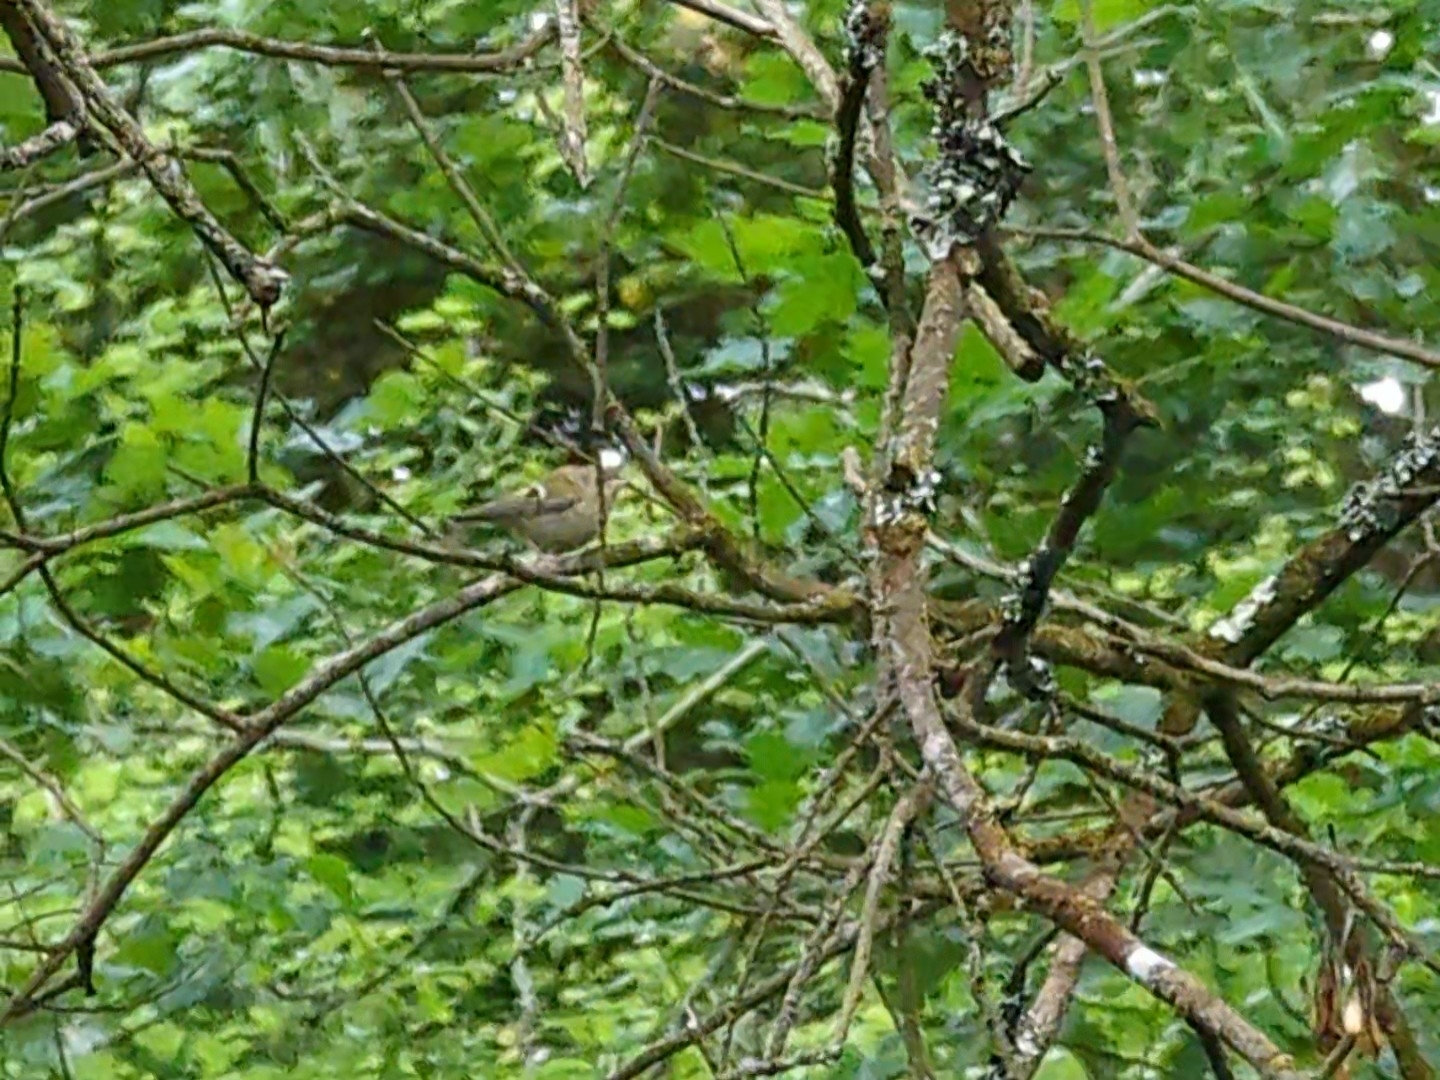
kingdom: Animalia
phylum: Chordata
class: Aves
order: Passeriformes
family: Regulidae
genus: Regulus
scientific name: Regulus regulus
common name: Goldcrest
